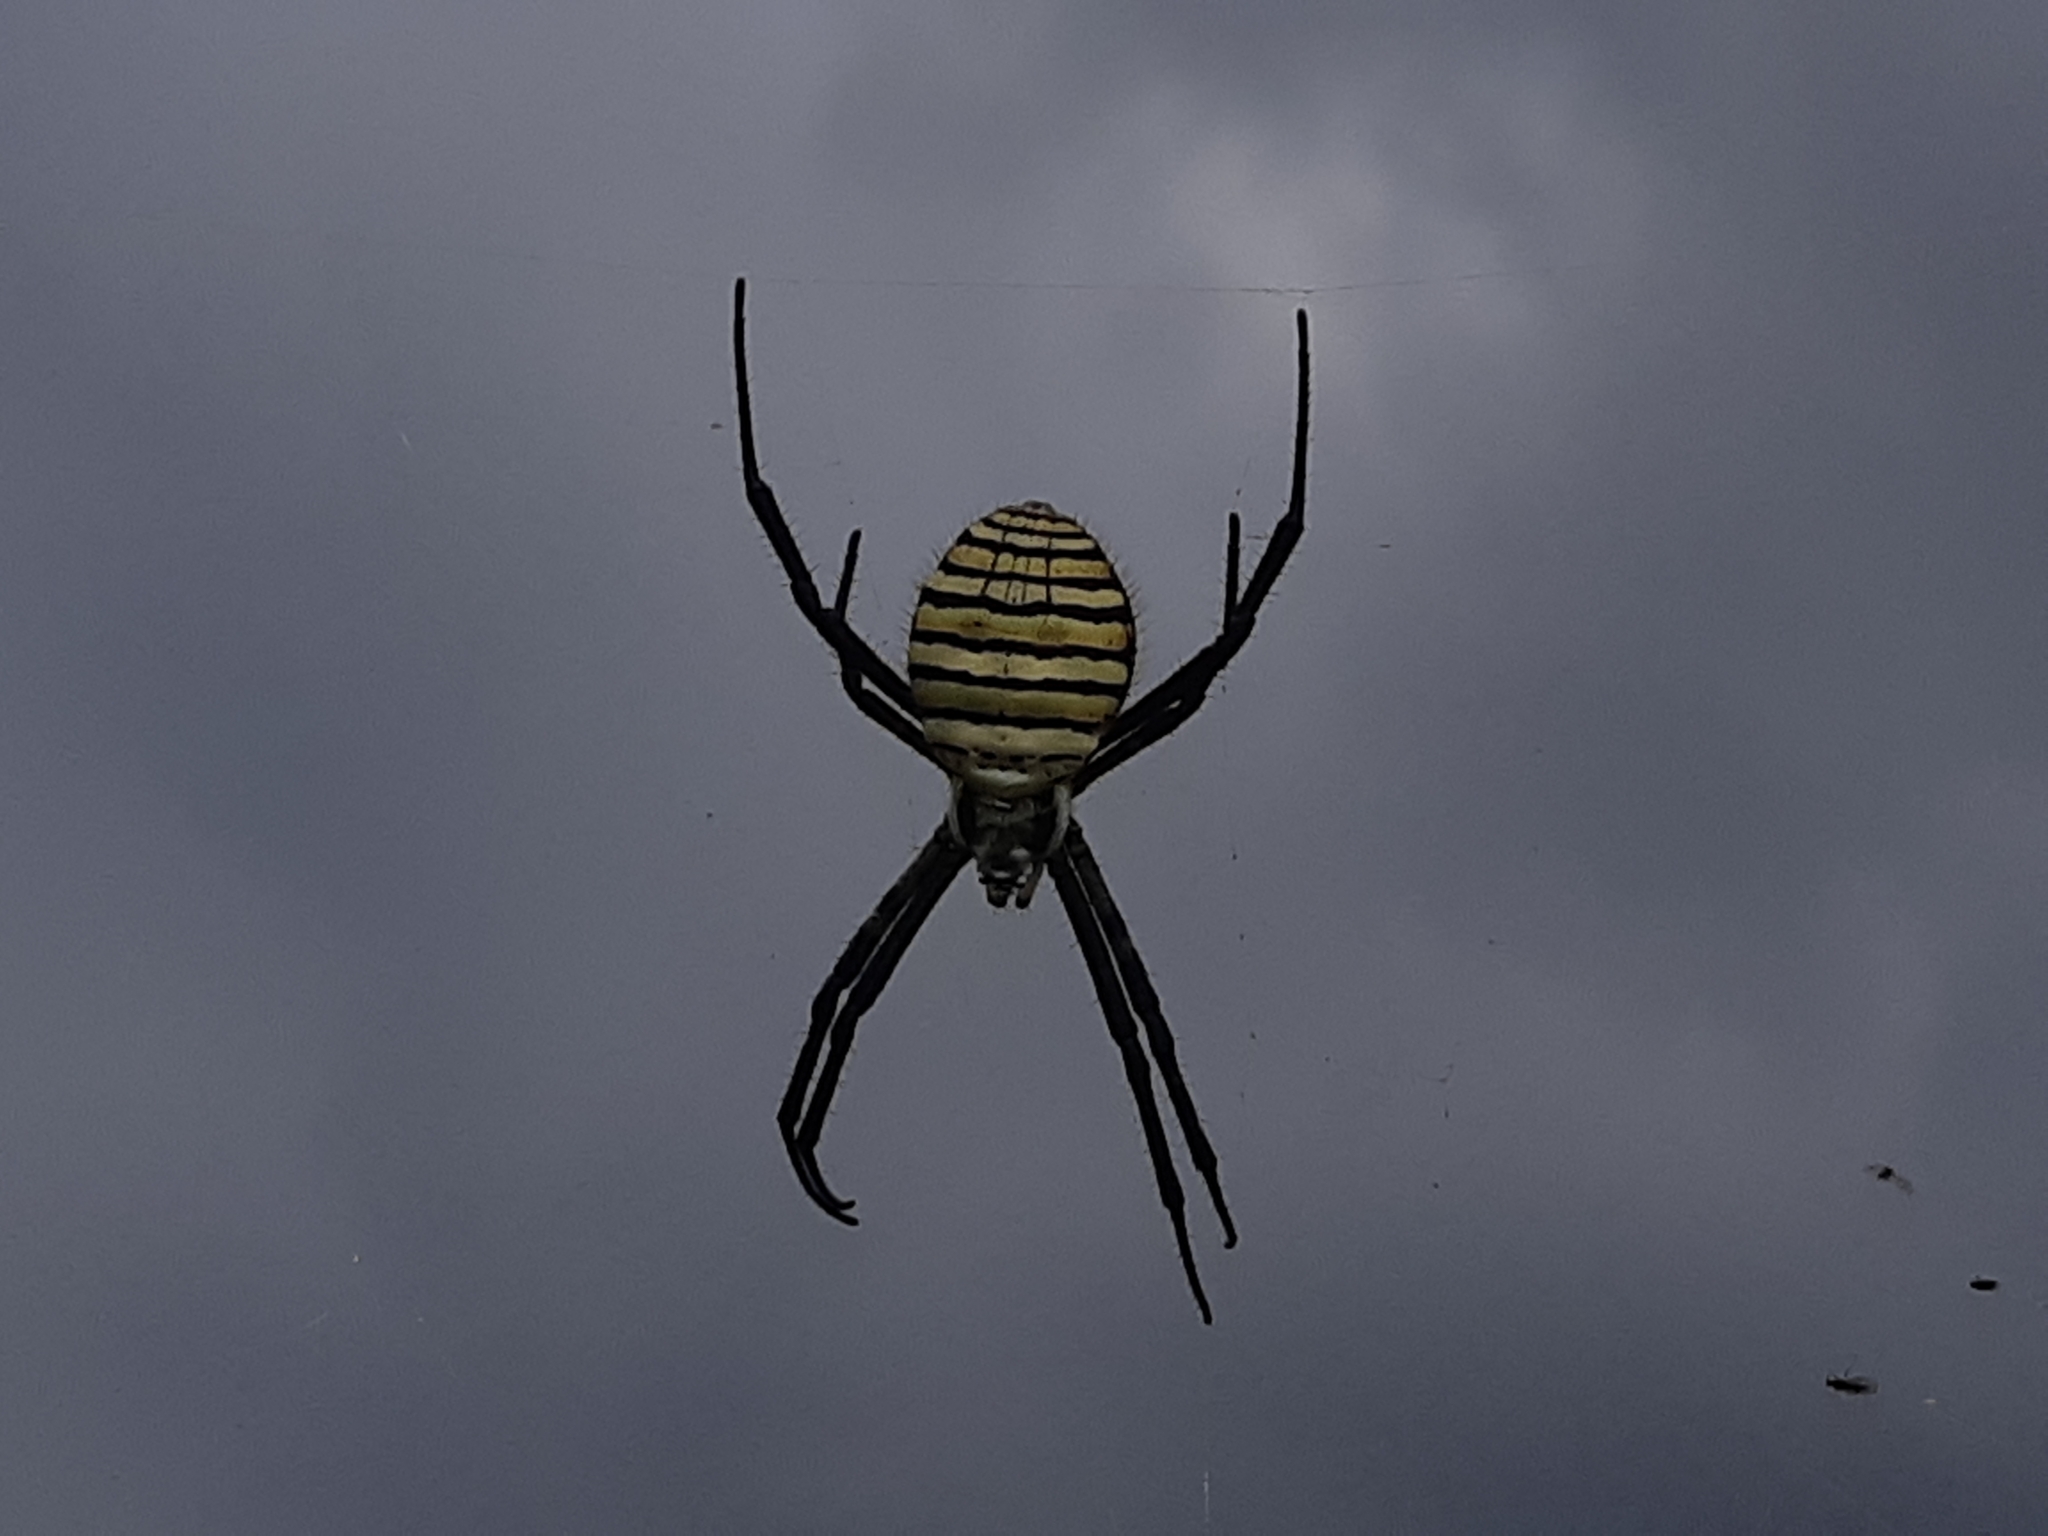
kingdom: Animalia
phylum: Arthropoda
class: Arachnida
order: Araneae
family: Araneidae
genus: Argiope
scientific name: Argiope trifasciata
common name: Banded garden spider
